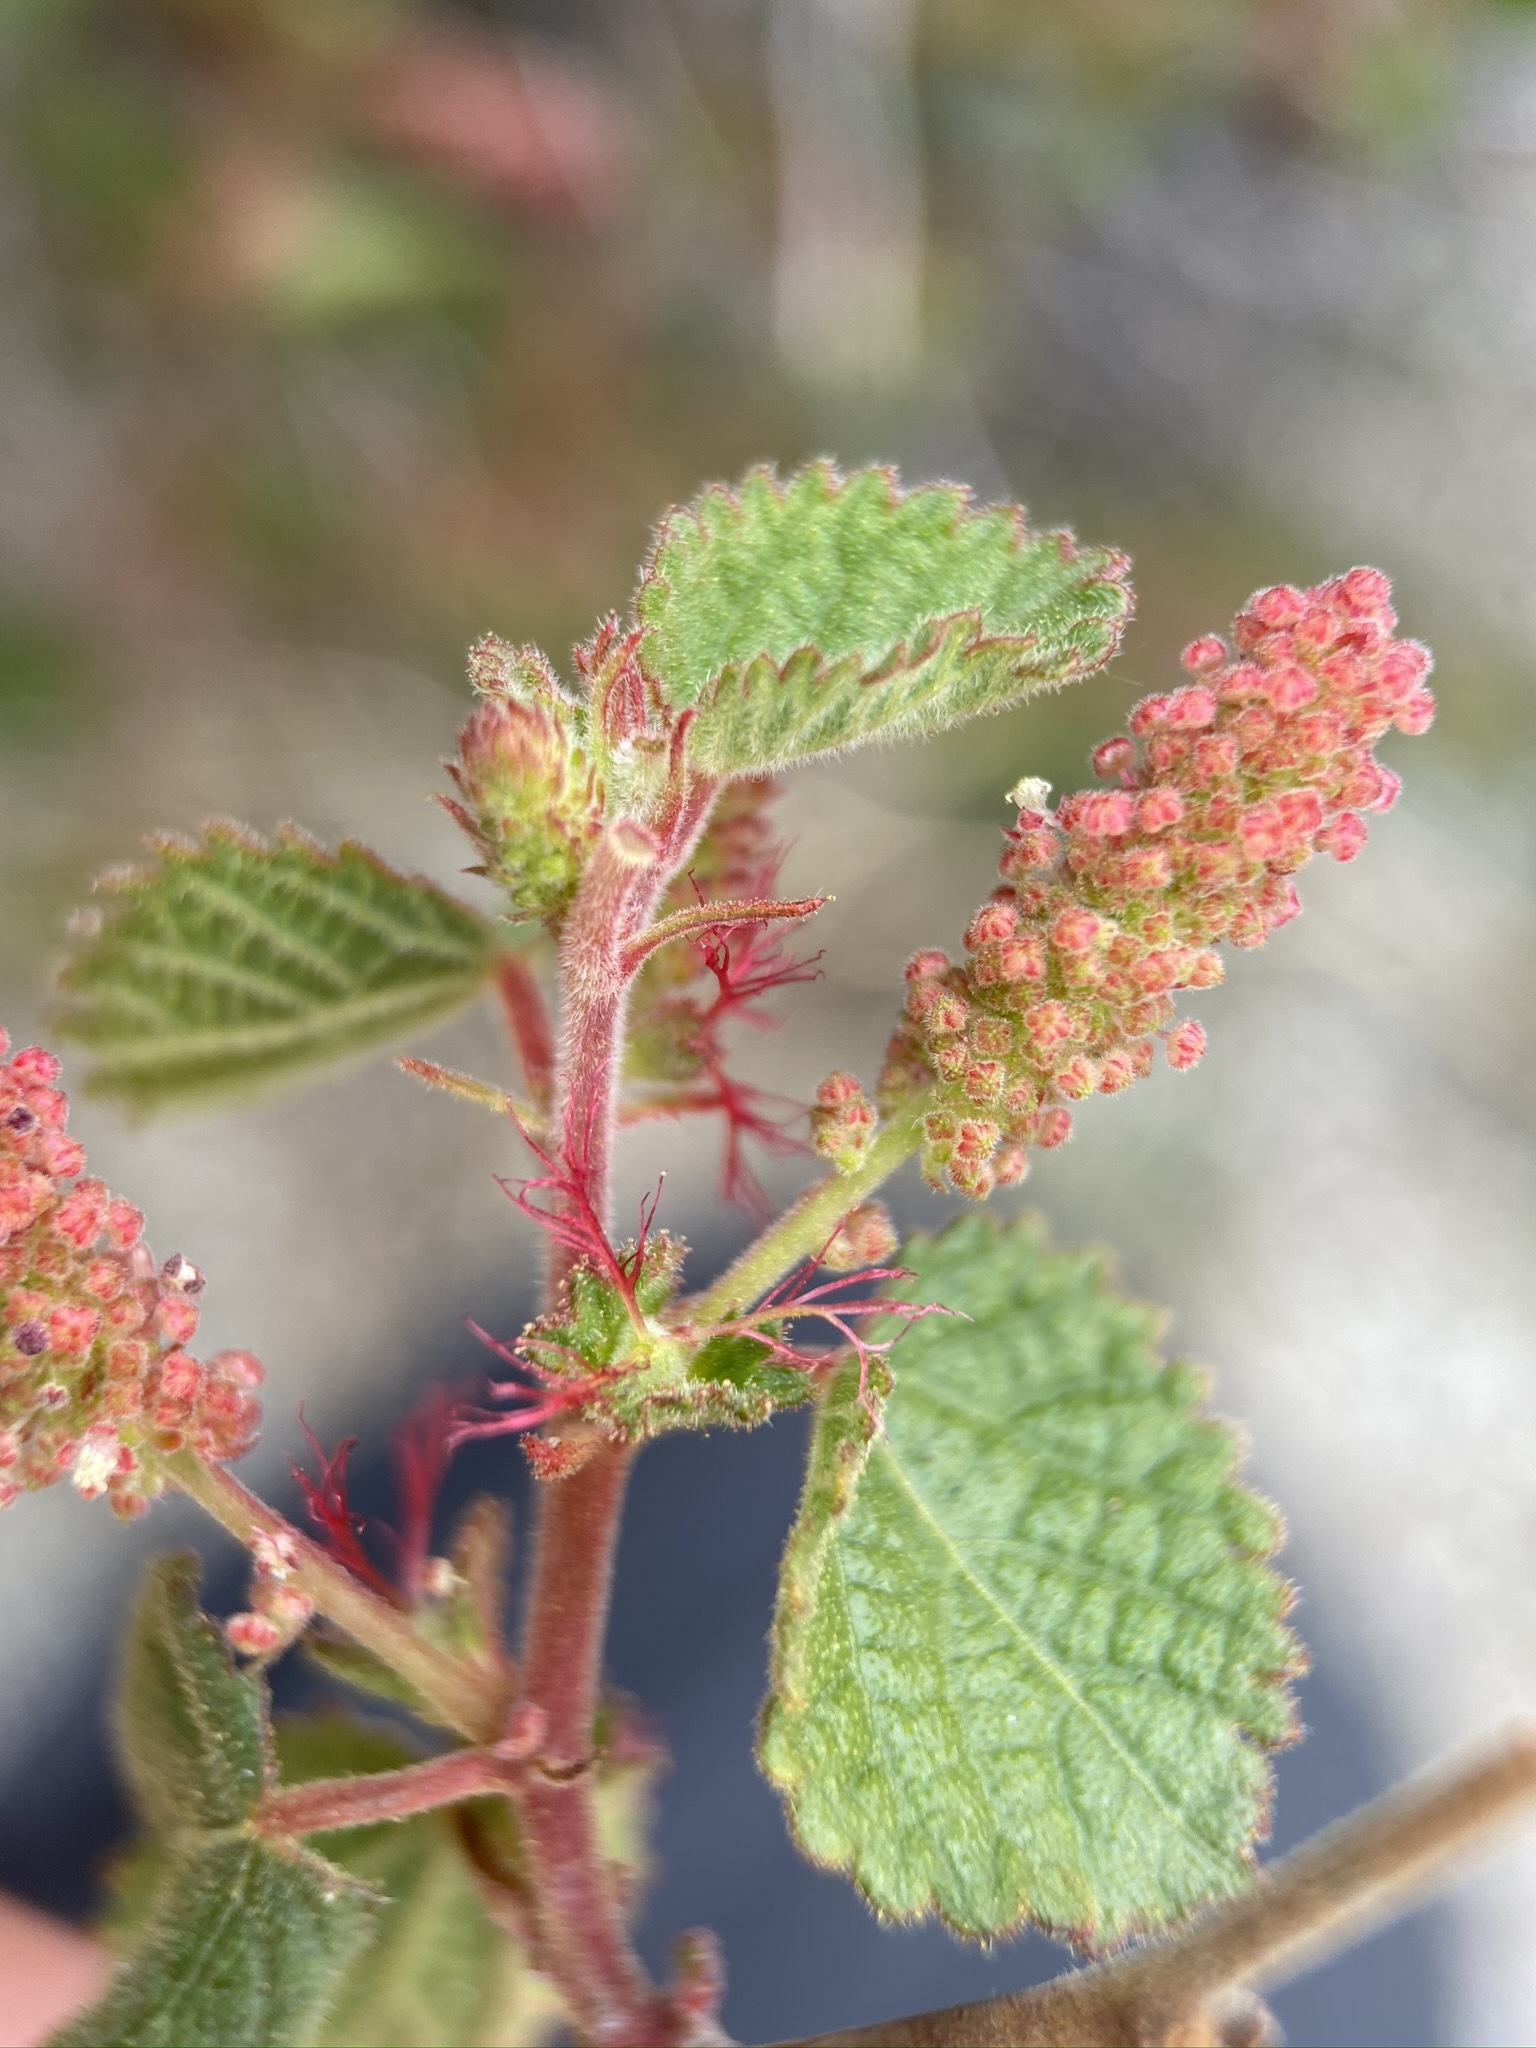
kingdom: Plantae
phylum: Tracheophyta
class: Magnoliopsida
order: Malpighiales
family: Euphorbiaceae
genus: Acalypha
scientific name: Acalypha californica
